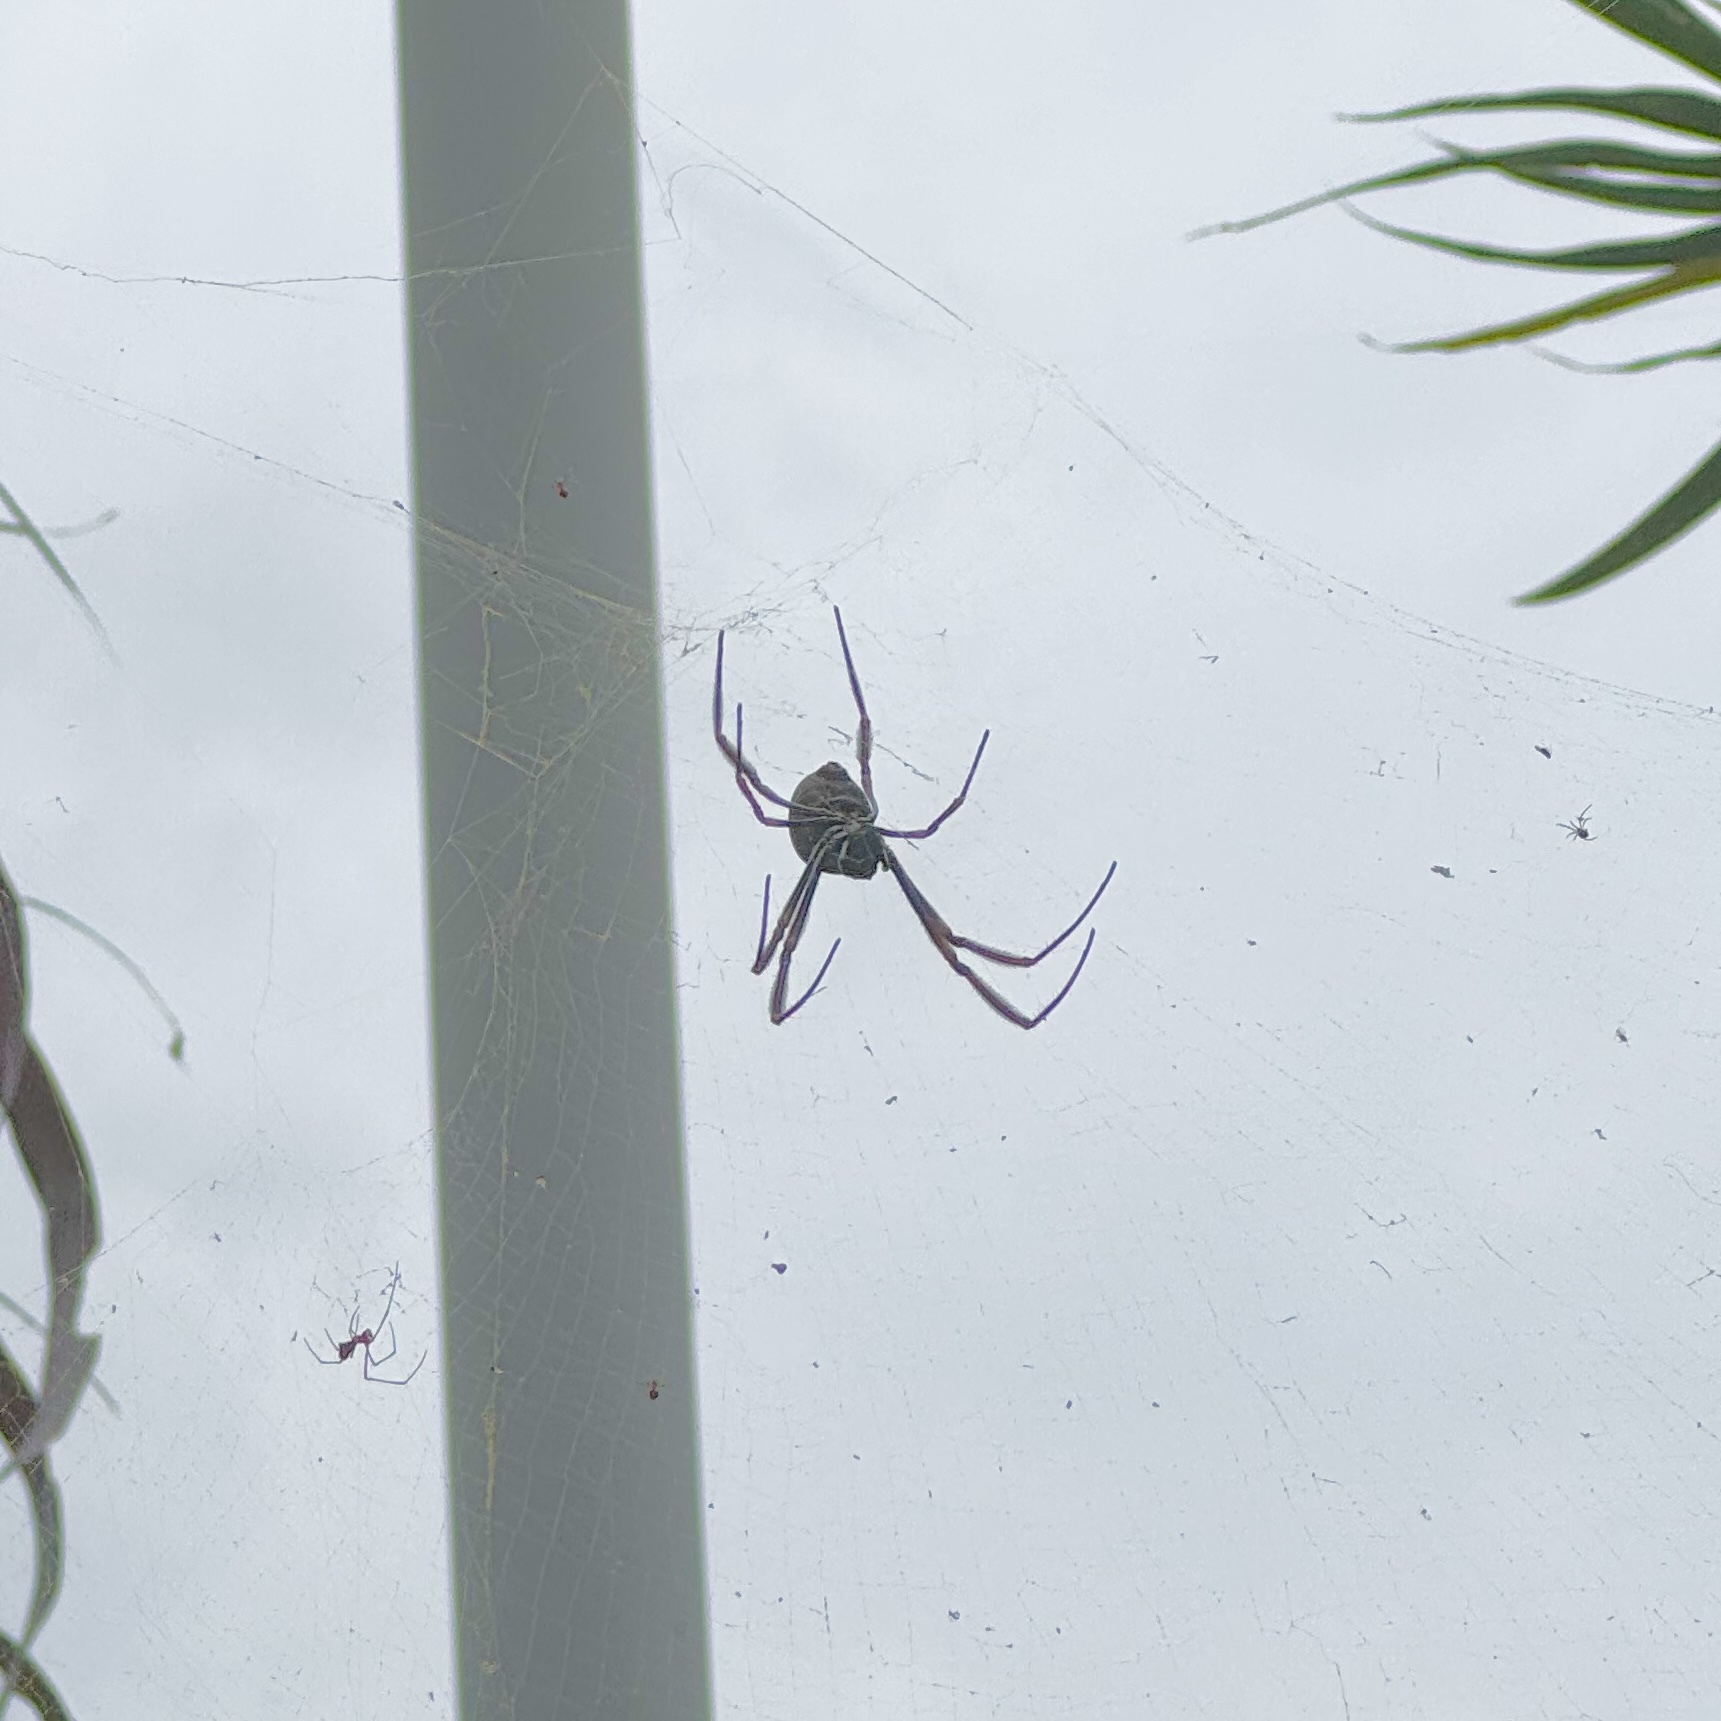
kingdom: Animalia
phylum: Arthropoda
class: Arachnida
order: Araneae
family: Araneidae
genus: Trichonephila
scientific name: Trichonephila edulis
